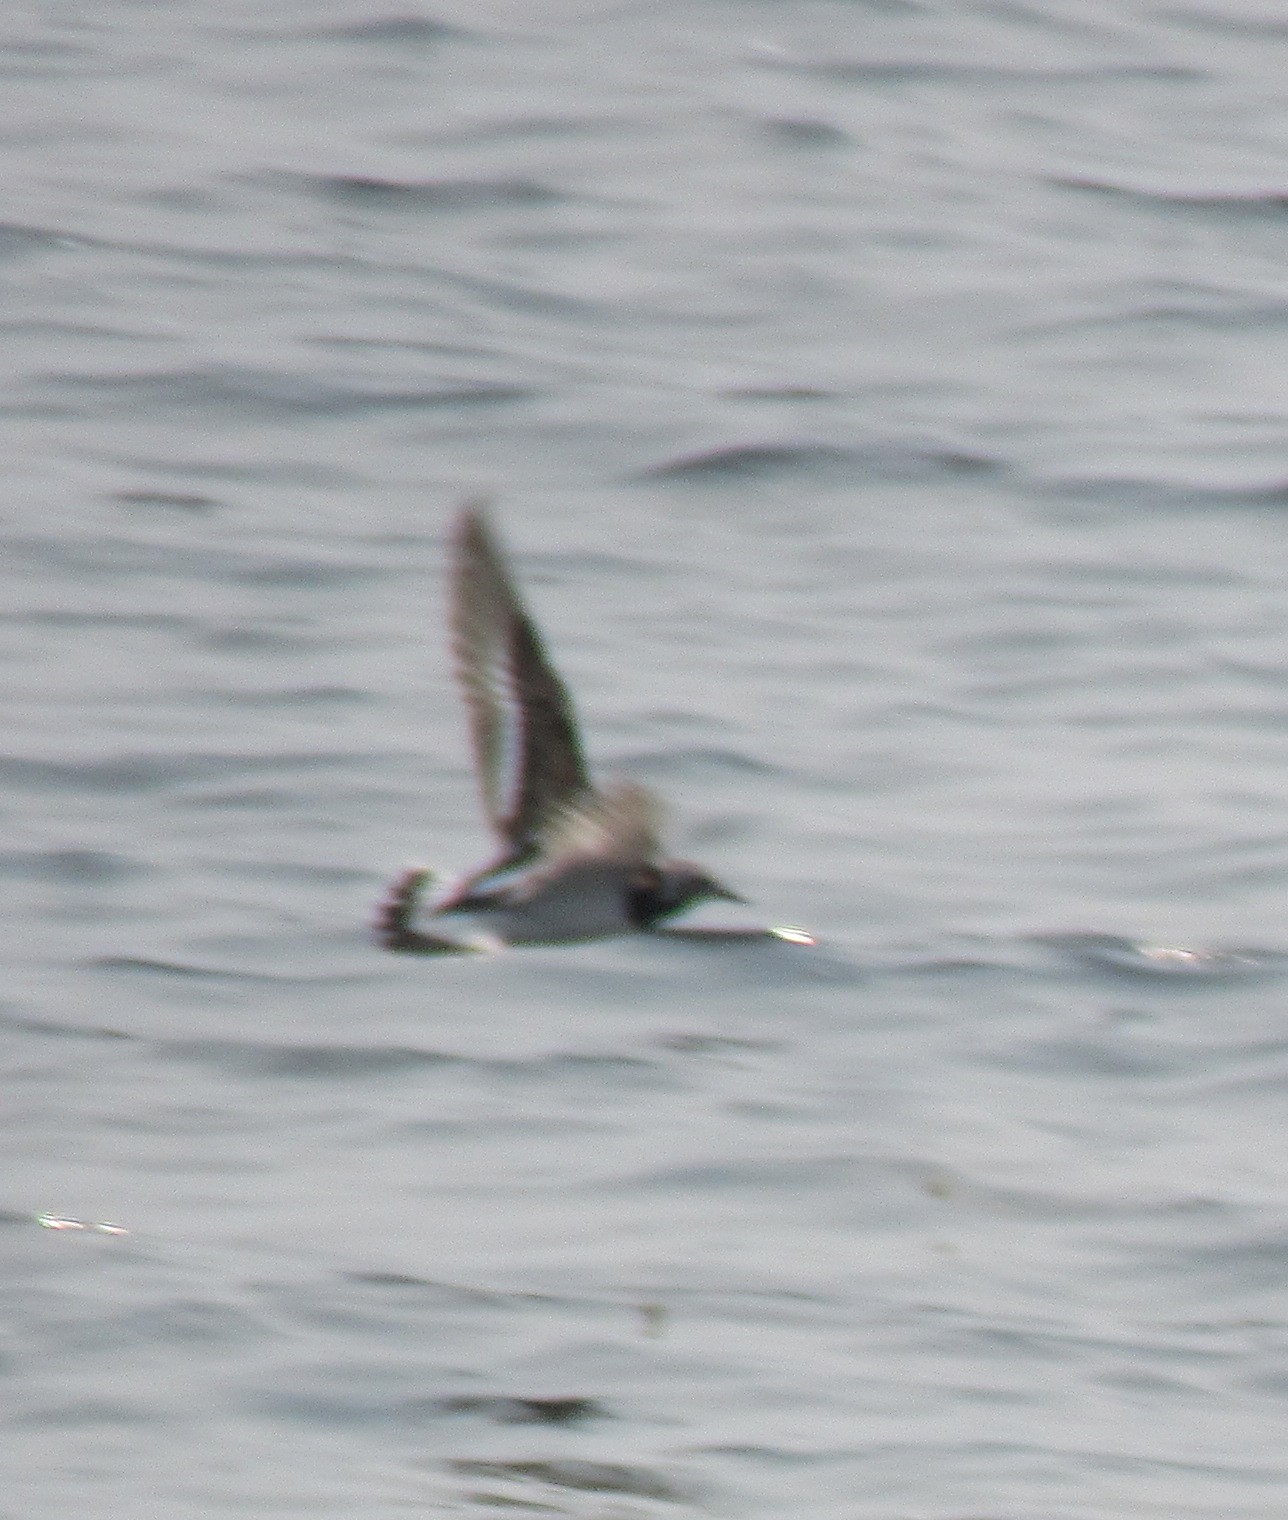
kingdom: Animalia
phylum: Chordata
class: Aves
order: Charadriiformes
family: Scolopacidae
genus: Arenaria
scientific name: Arenaria interpres
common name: Ruddy turnstone
